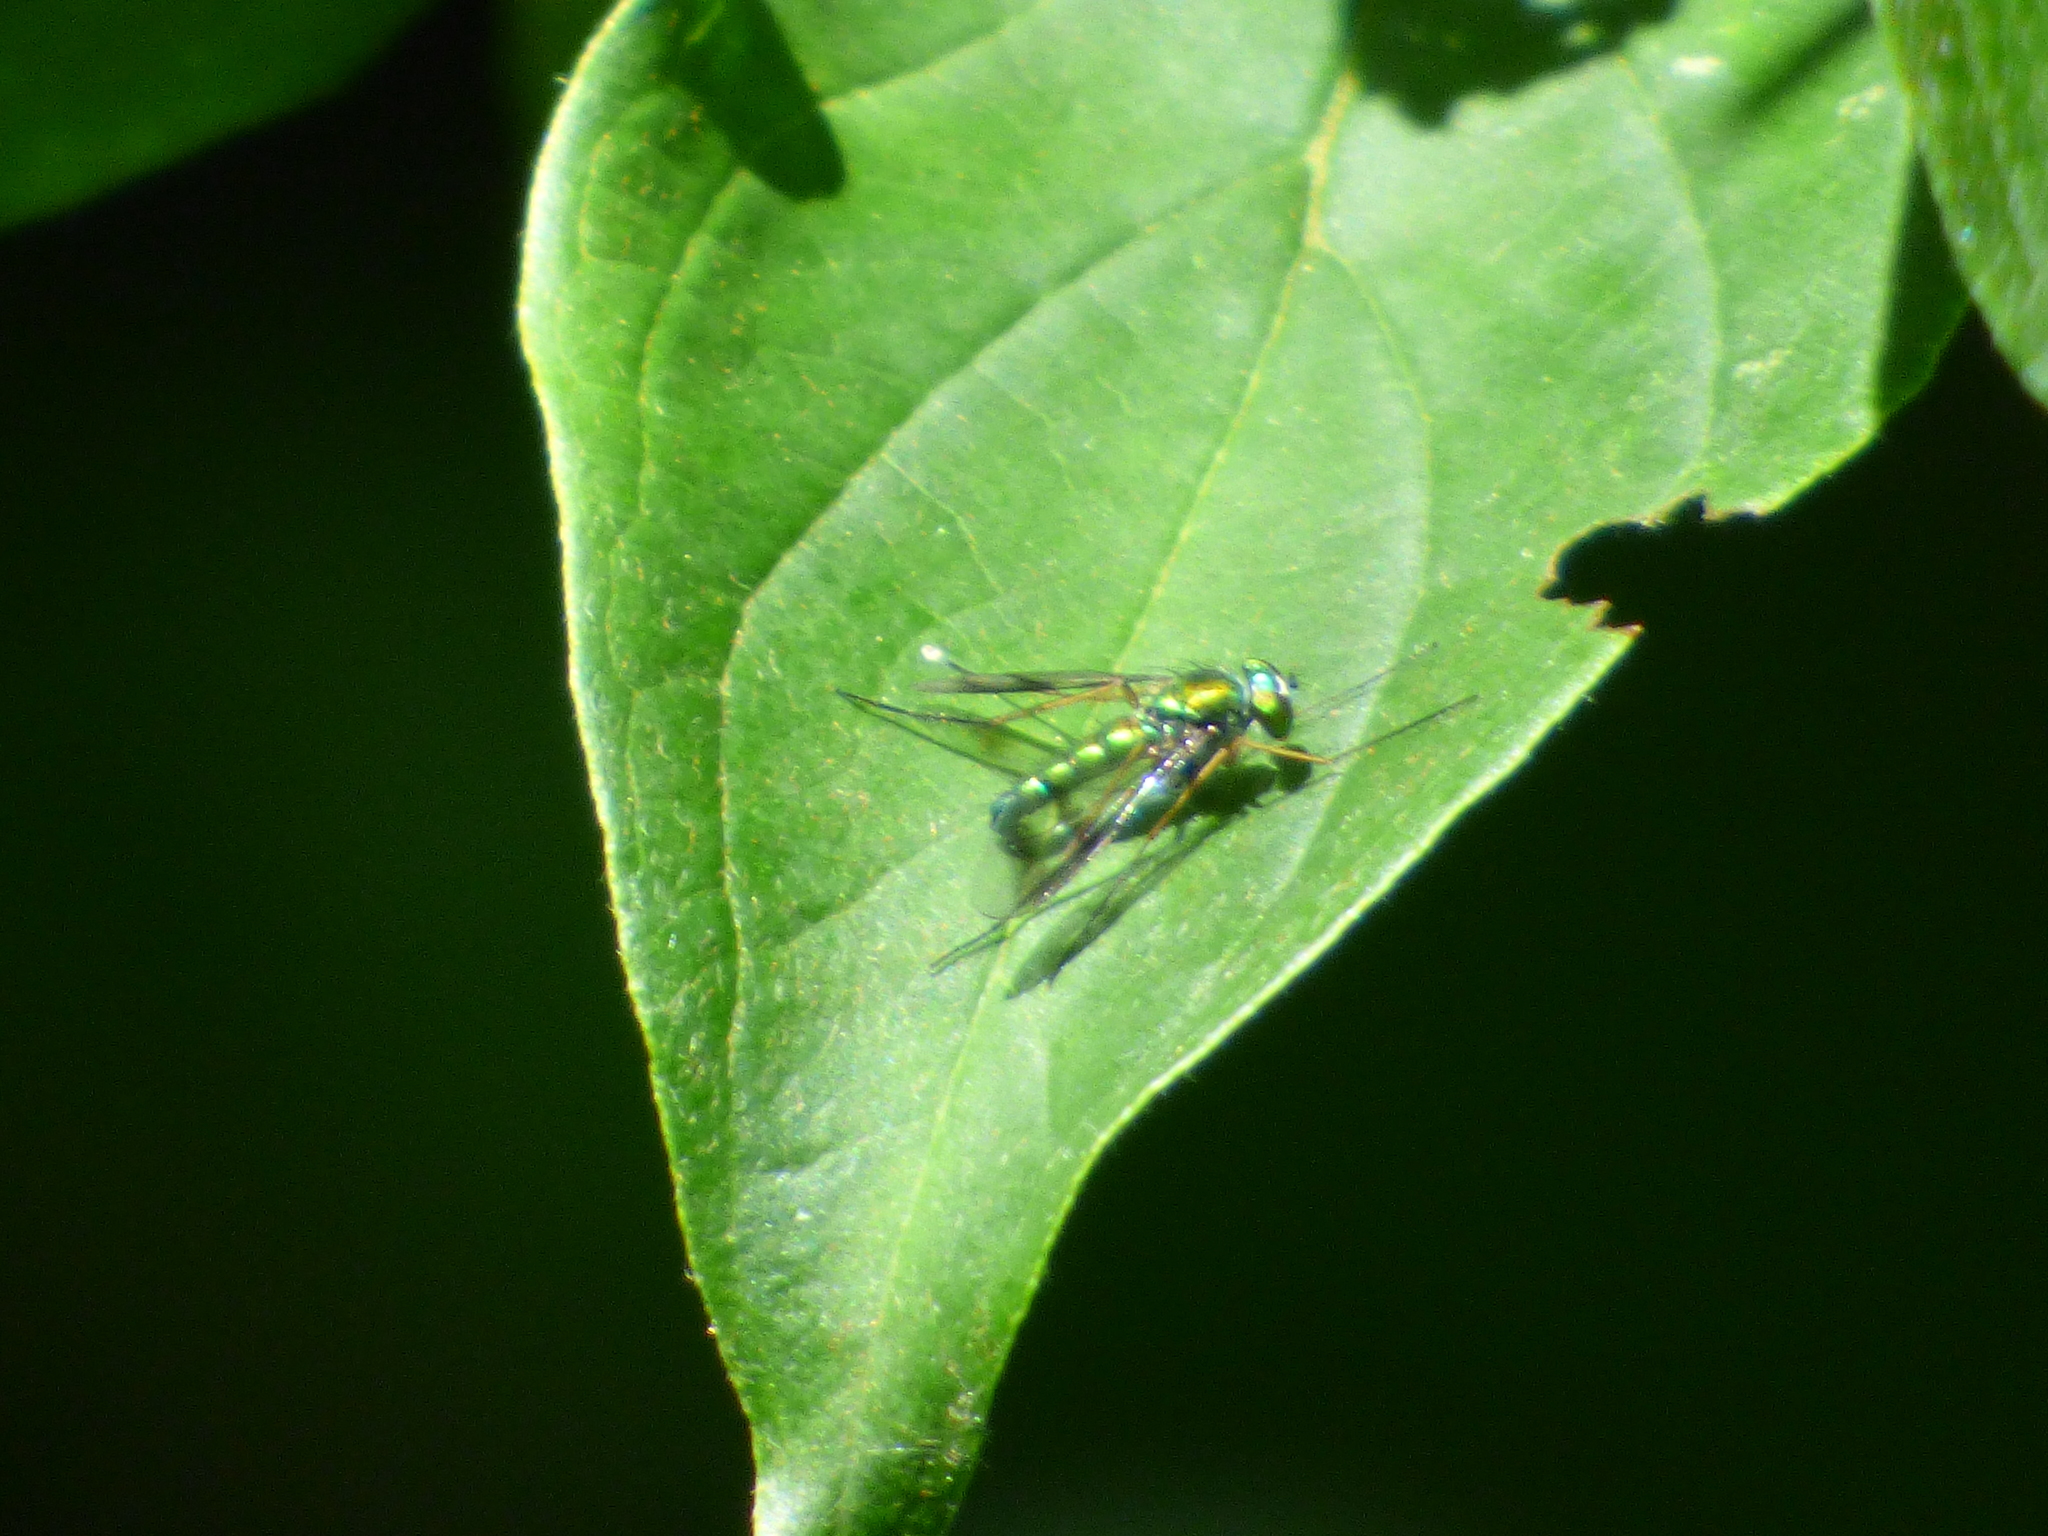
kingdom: Animalia
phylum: Arthropoda
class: Insecta
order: Diptera
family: Dolichopodidae
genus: Condylostylus
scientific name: Condylostylus
